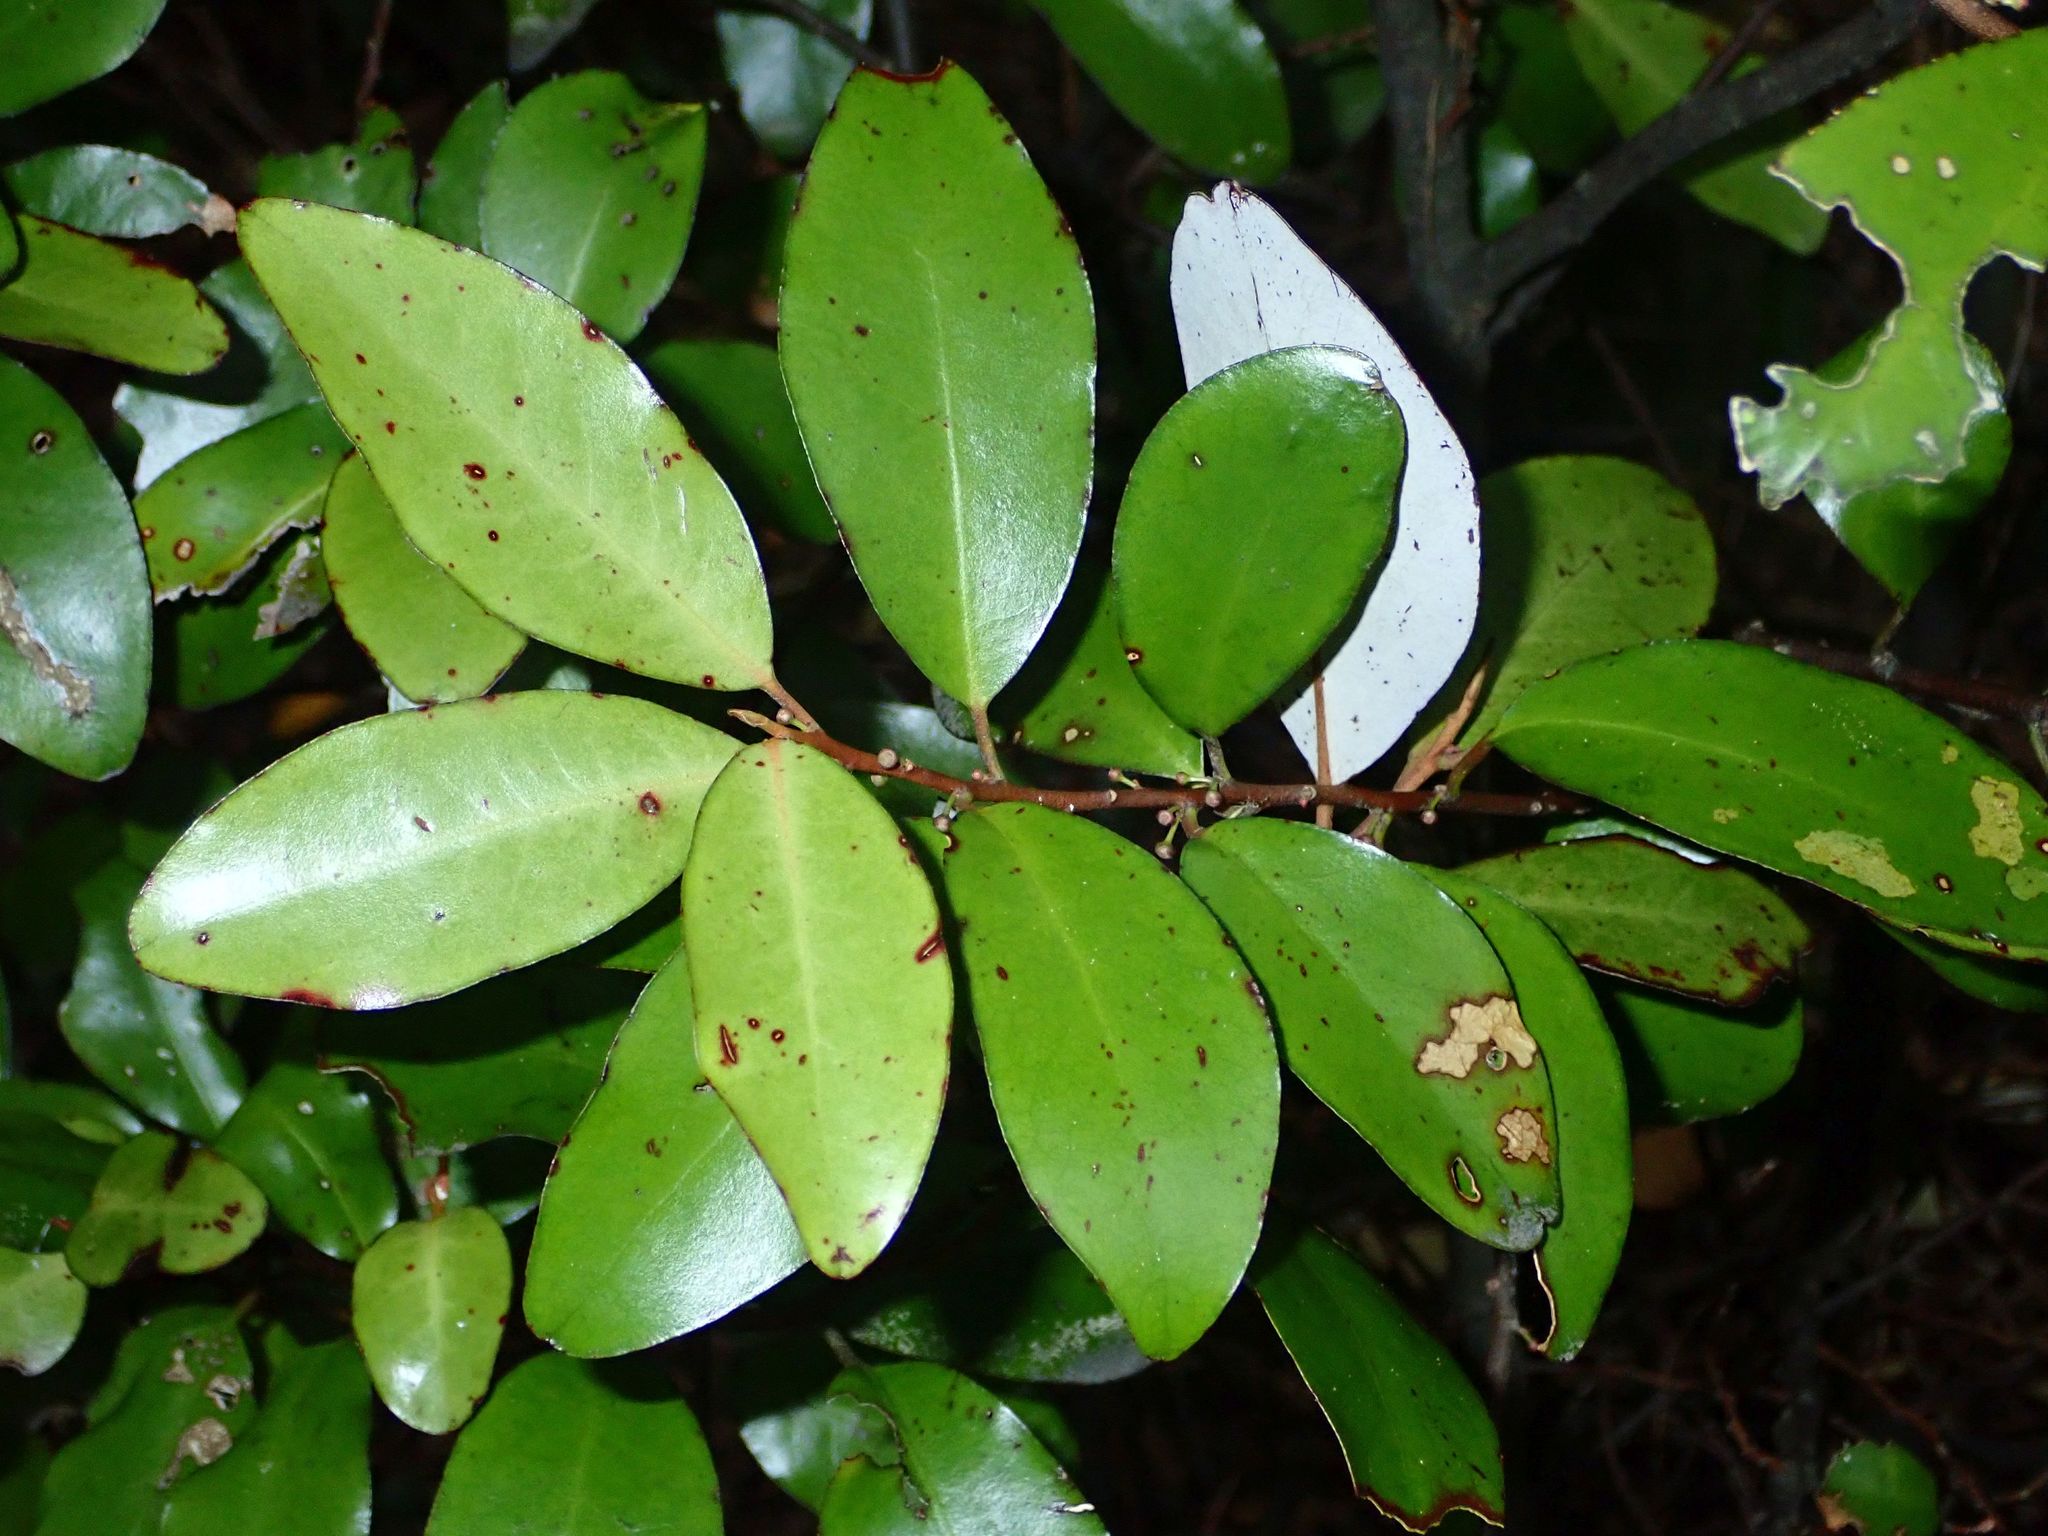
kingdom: Plantae
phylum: Tracheophyta
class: Magnoliopsida
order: Canellales
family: Winteraceae
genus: Pseudowintera
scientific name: Pseudowintera colorata
